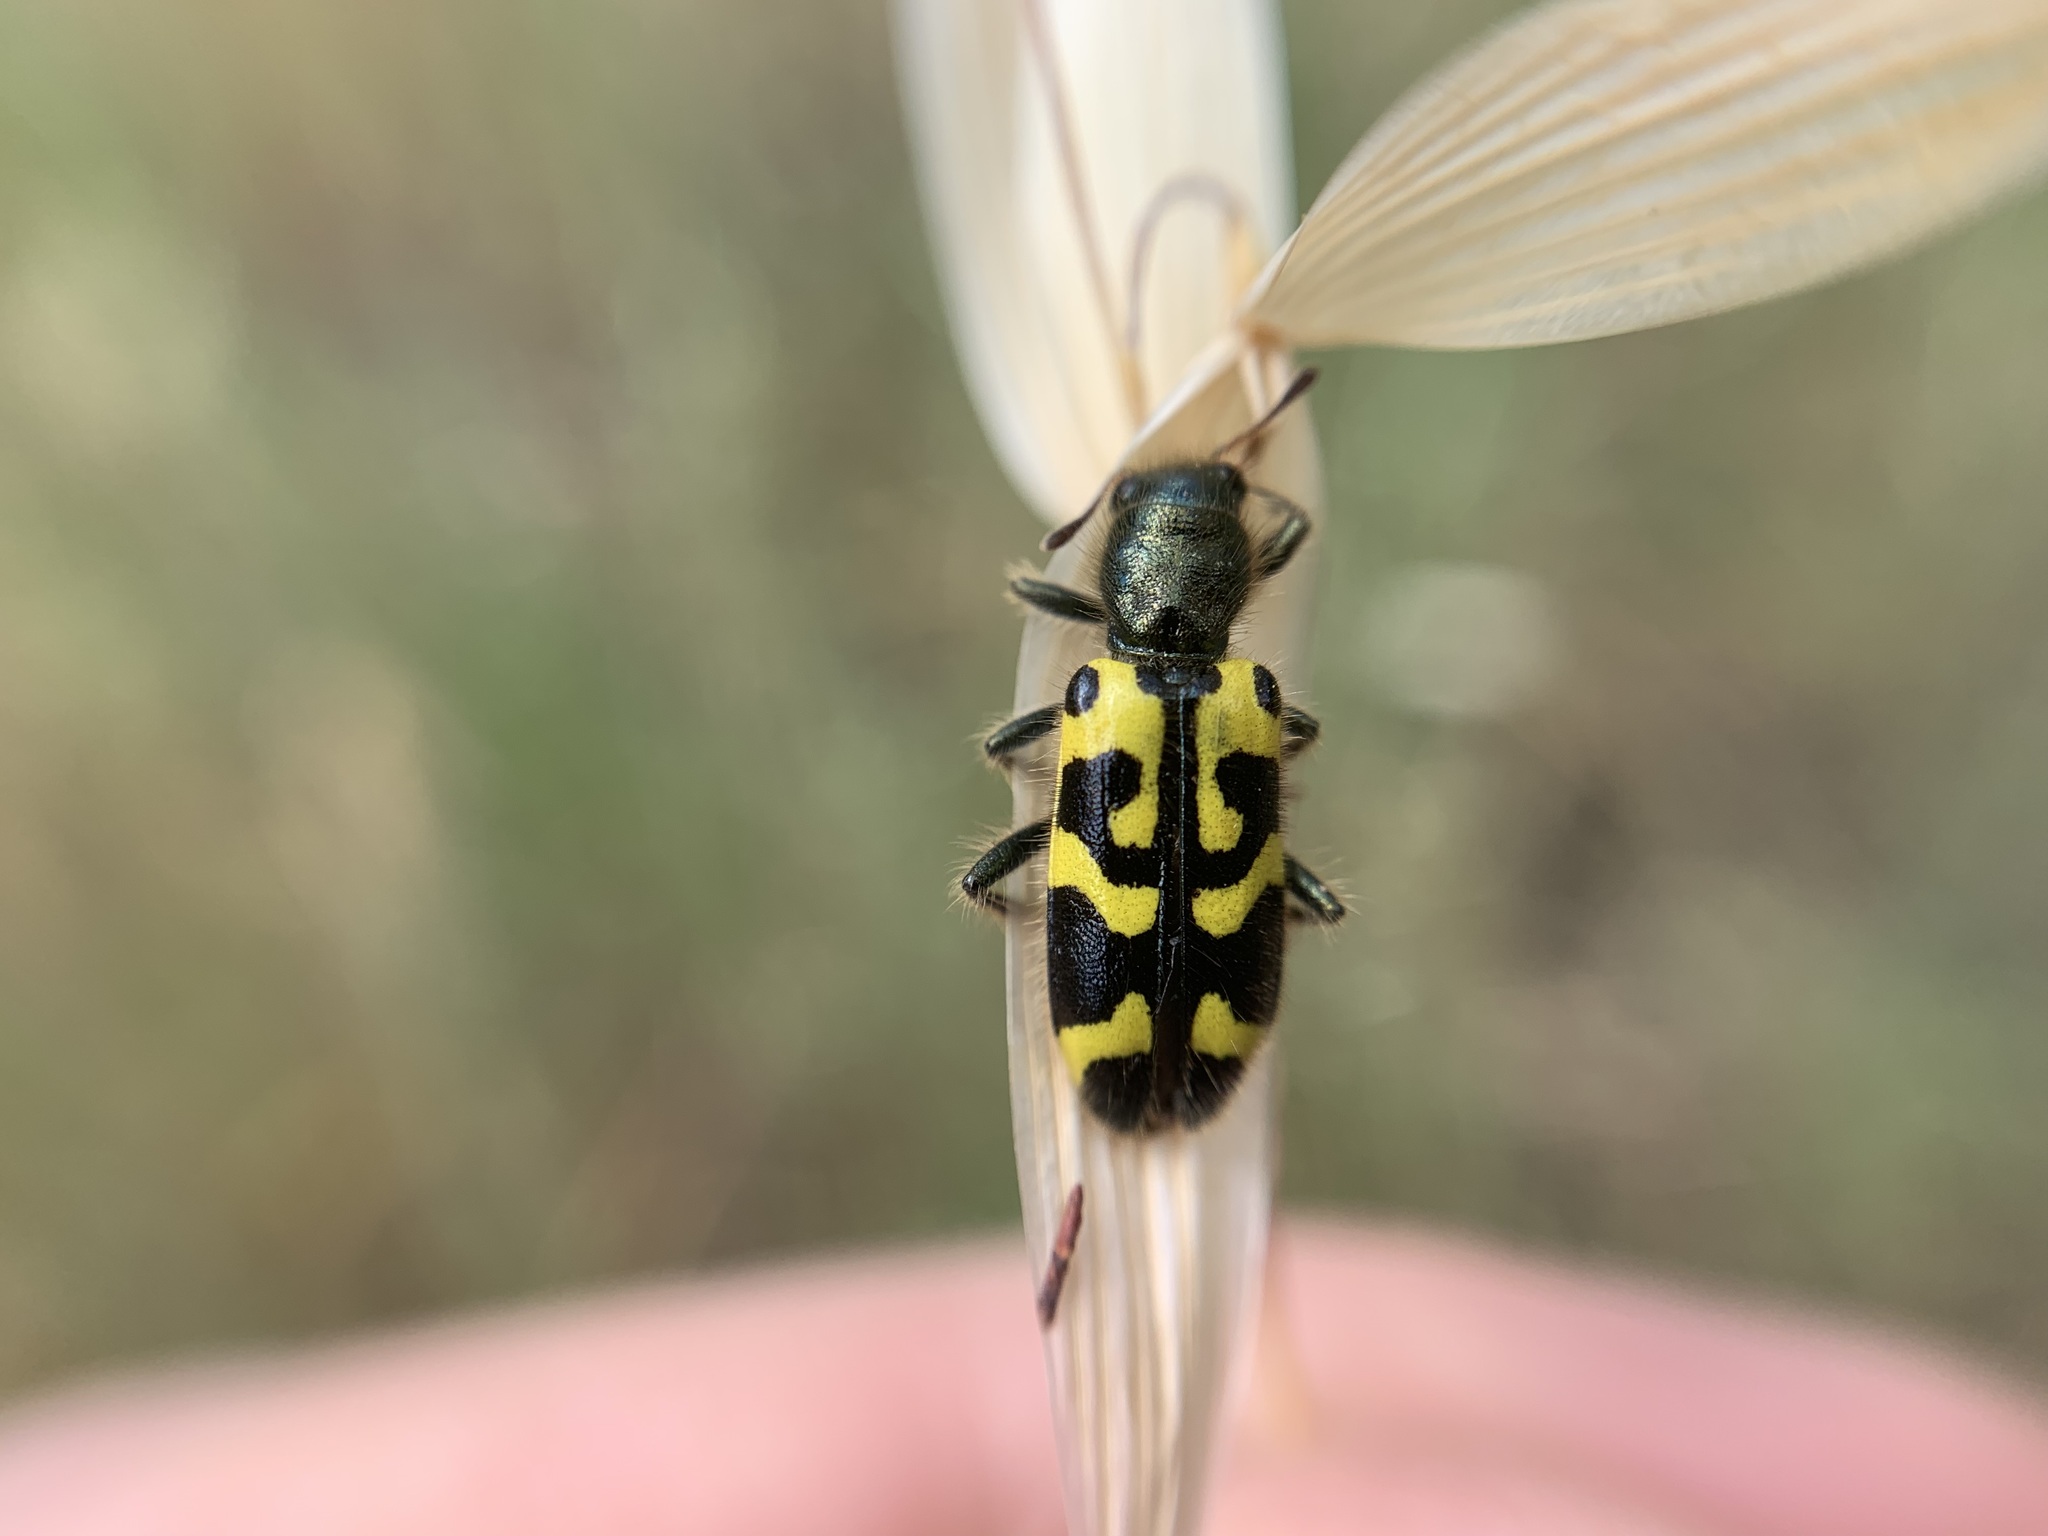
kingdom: Animalia
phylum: Arthropoda
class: Insecta
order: Coleoptera
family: Cleridae
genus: Trichodes
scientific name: Trichodes ornatus
